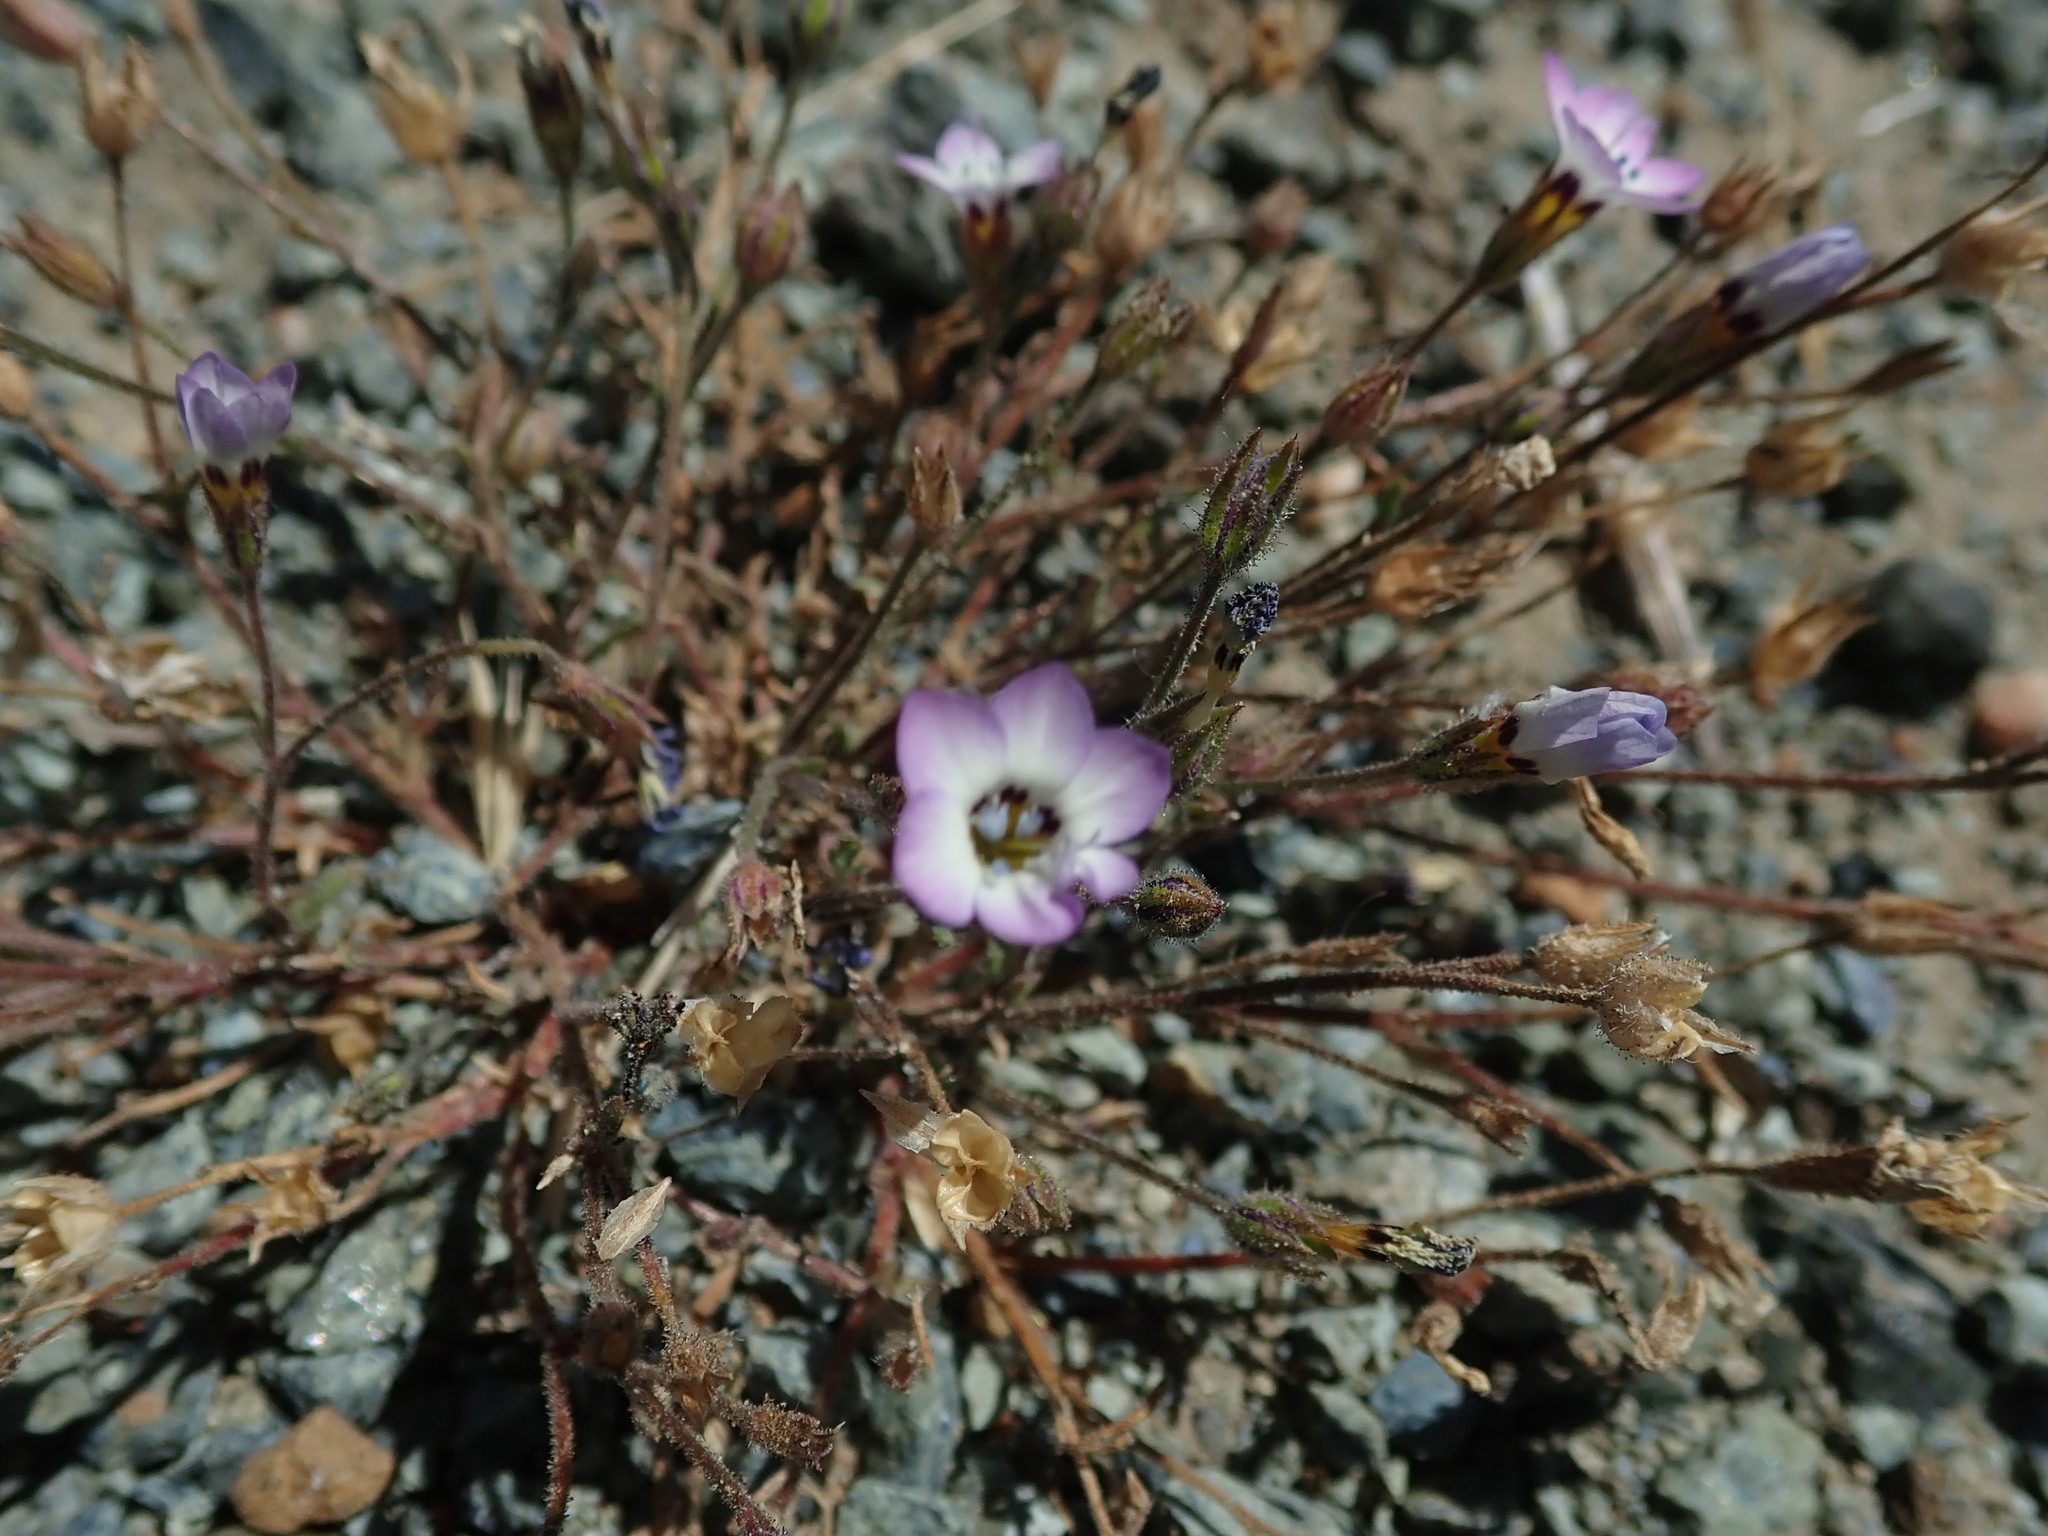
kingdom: Plantae
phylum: Tracheophyta
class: Magnoliopsida
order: Ericales
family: Polemoniaceae
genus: Gilia
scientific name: Gilia tricolor
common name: Bird's-eyes
